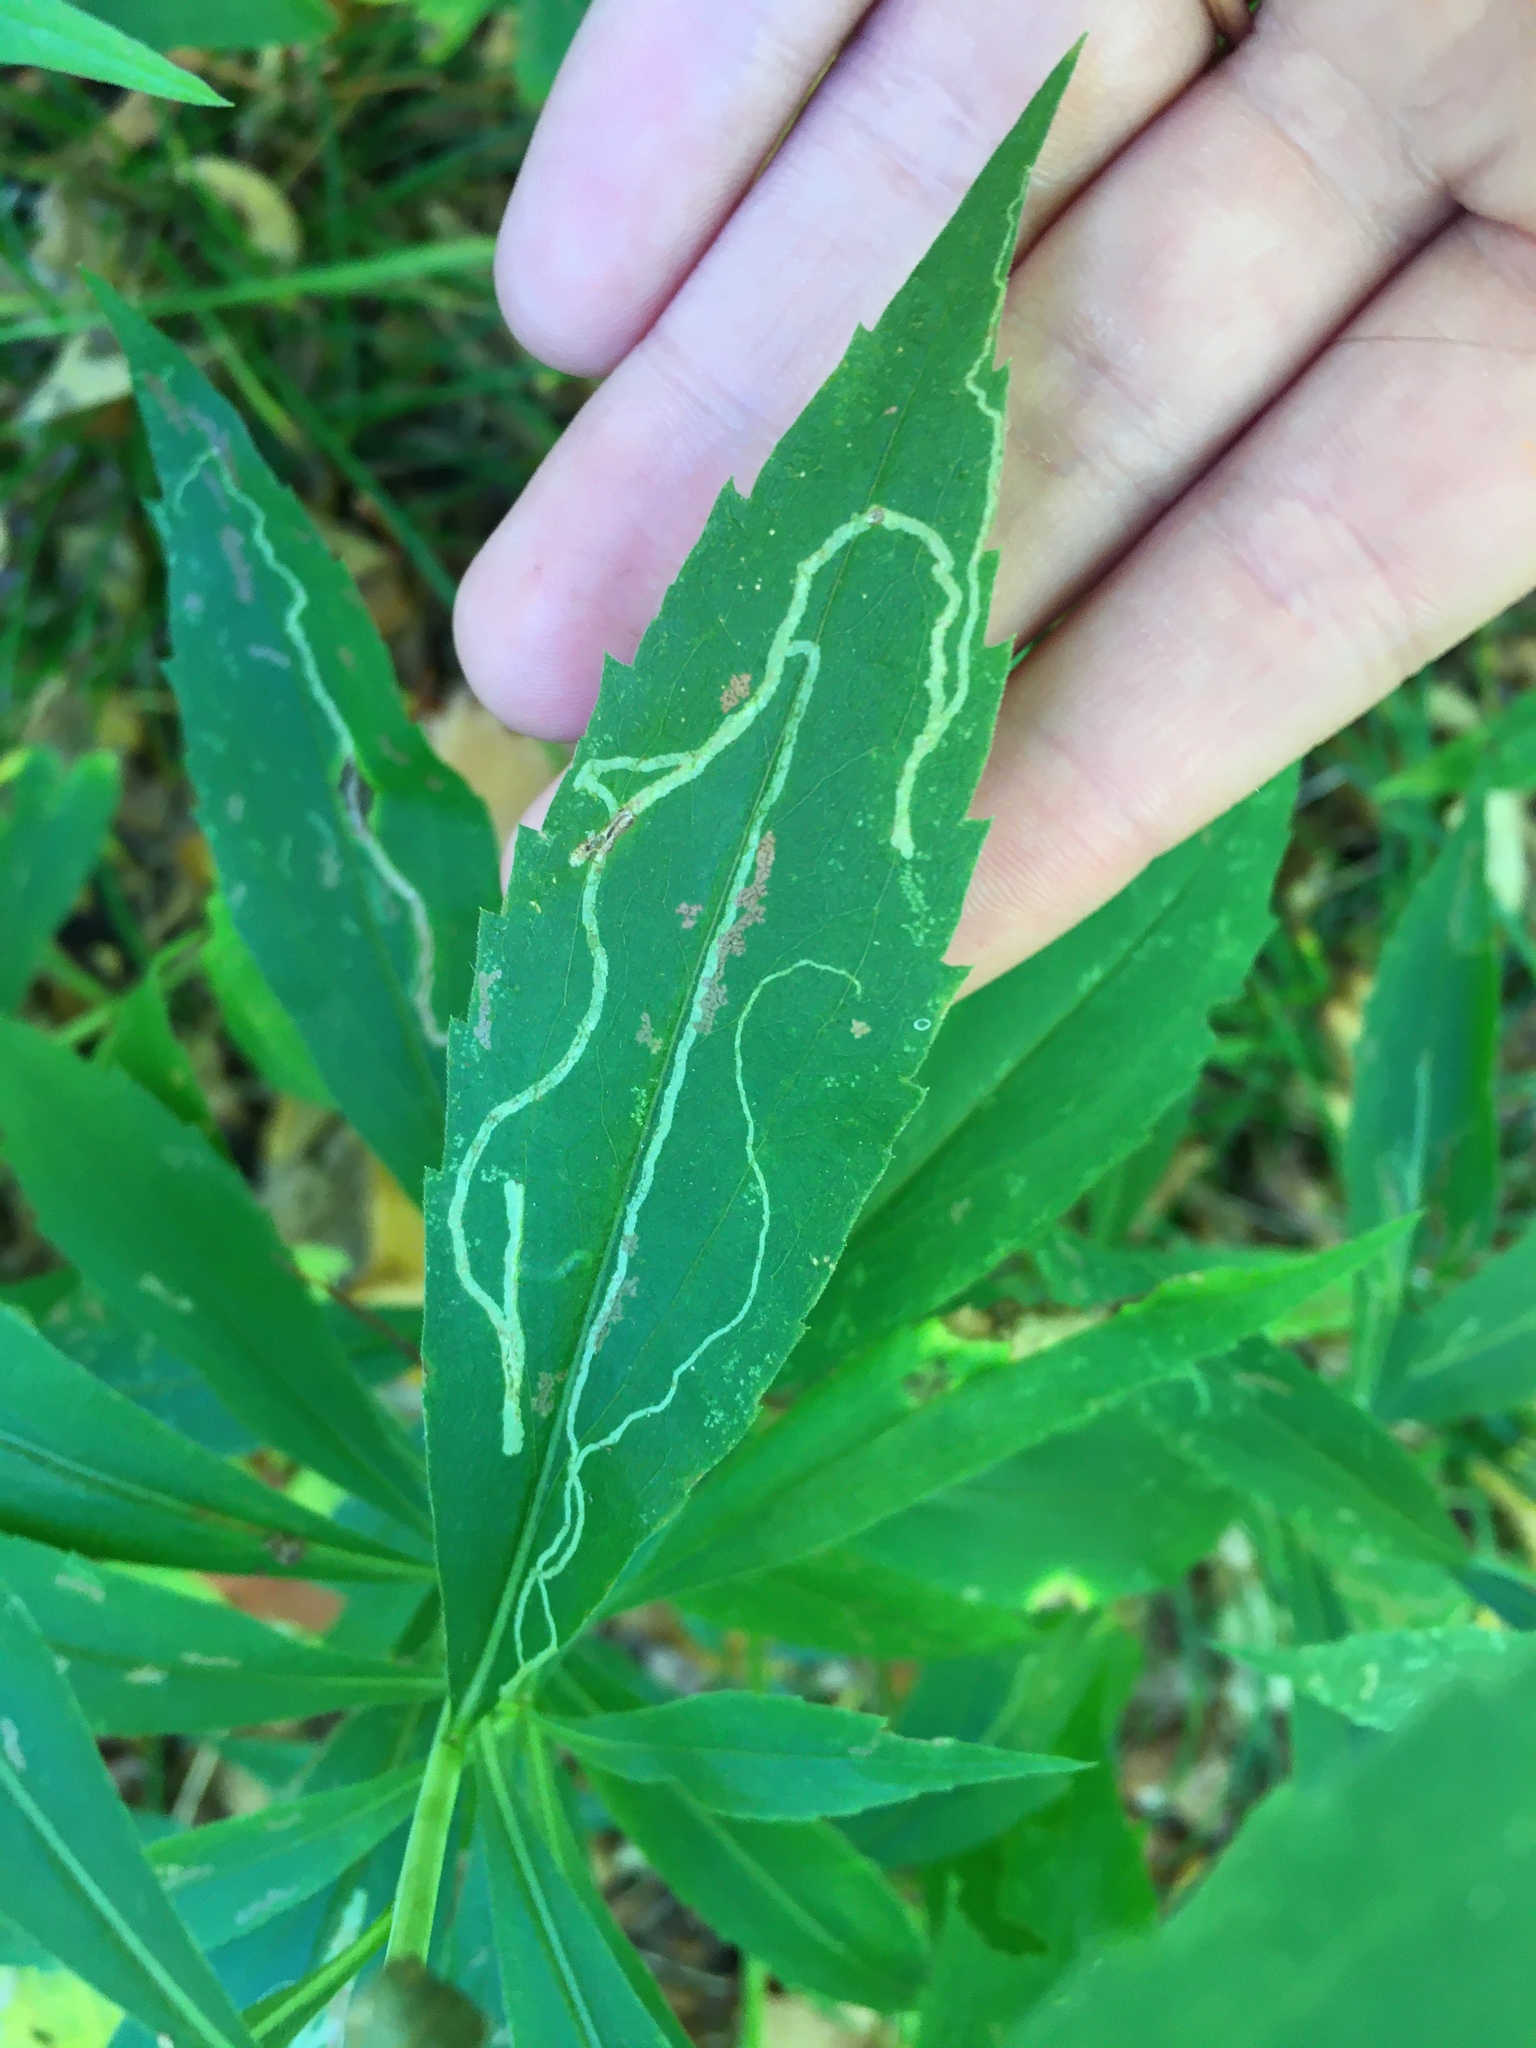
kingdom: Animalia
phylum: Arthropoda
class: Insecta
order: Diptera
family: Agromyzidae
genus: Ophiomyia
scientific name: Ophiomyia maura
